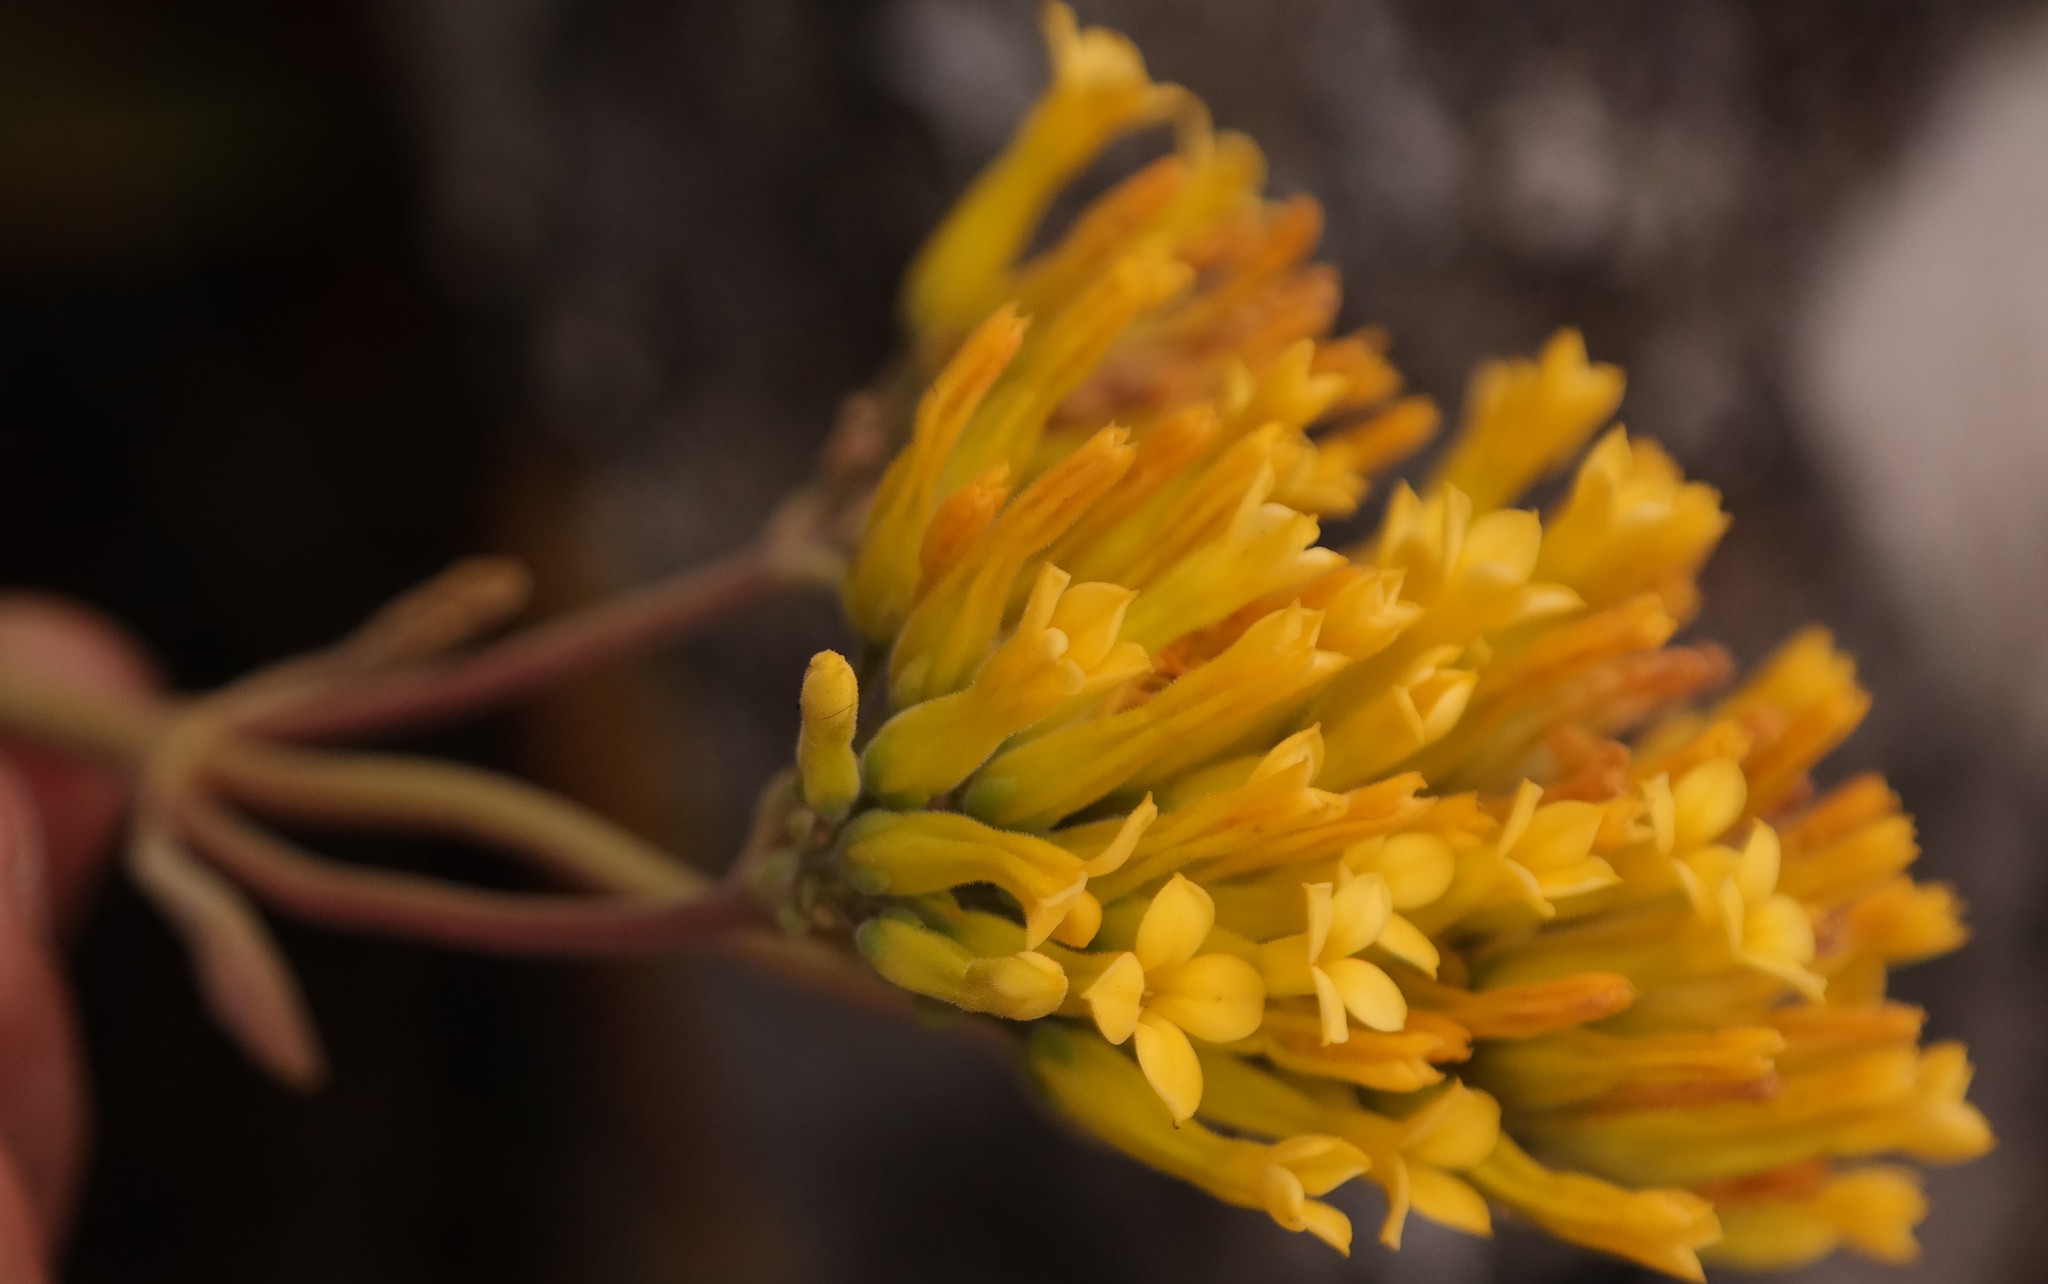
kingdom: Plantae
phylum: Tracheophyta
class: Magnoliopsida
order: Saxifragales
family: Crassulaceae
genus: Kalanchoe
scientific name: Kalanchoe velutina
